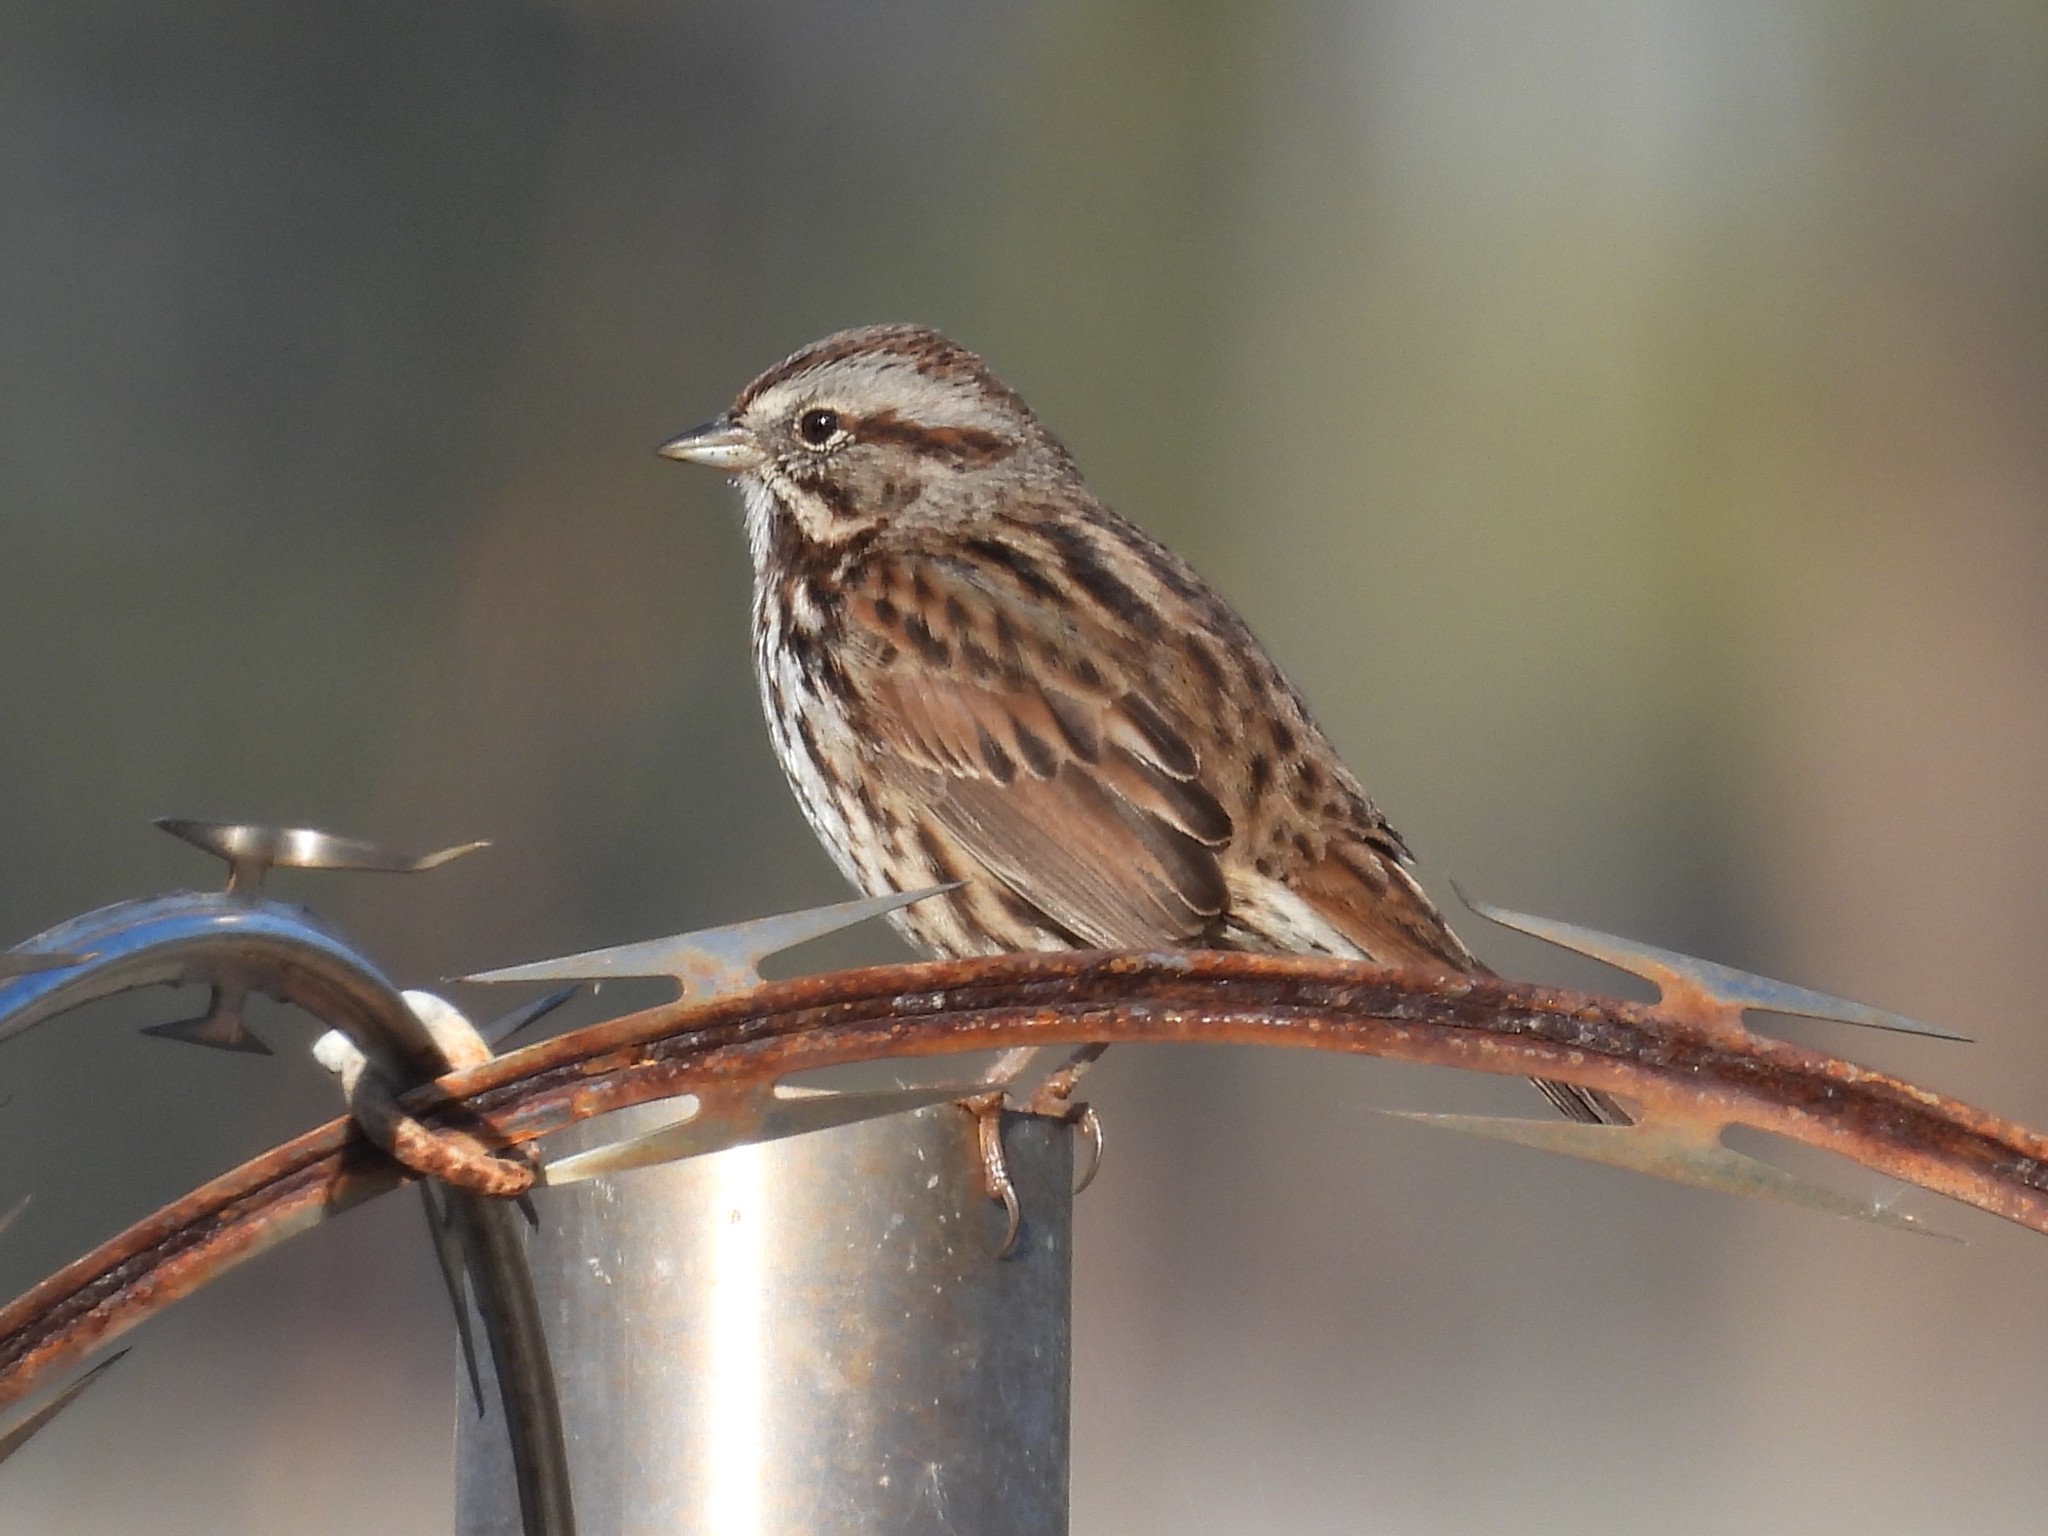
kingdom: Animalia
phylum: Chordata
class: Aves
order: Passeriformes
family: Passerellidae
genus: Melospiza
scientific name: Melospiza melodia
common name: Song sparrow
